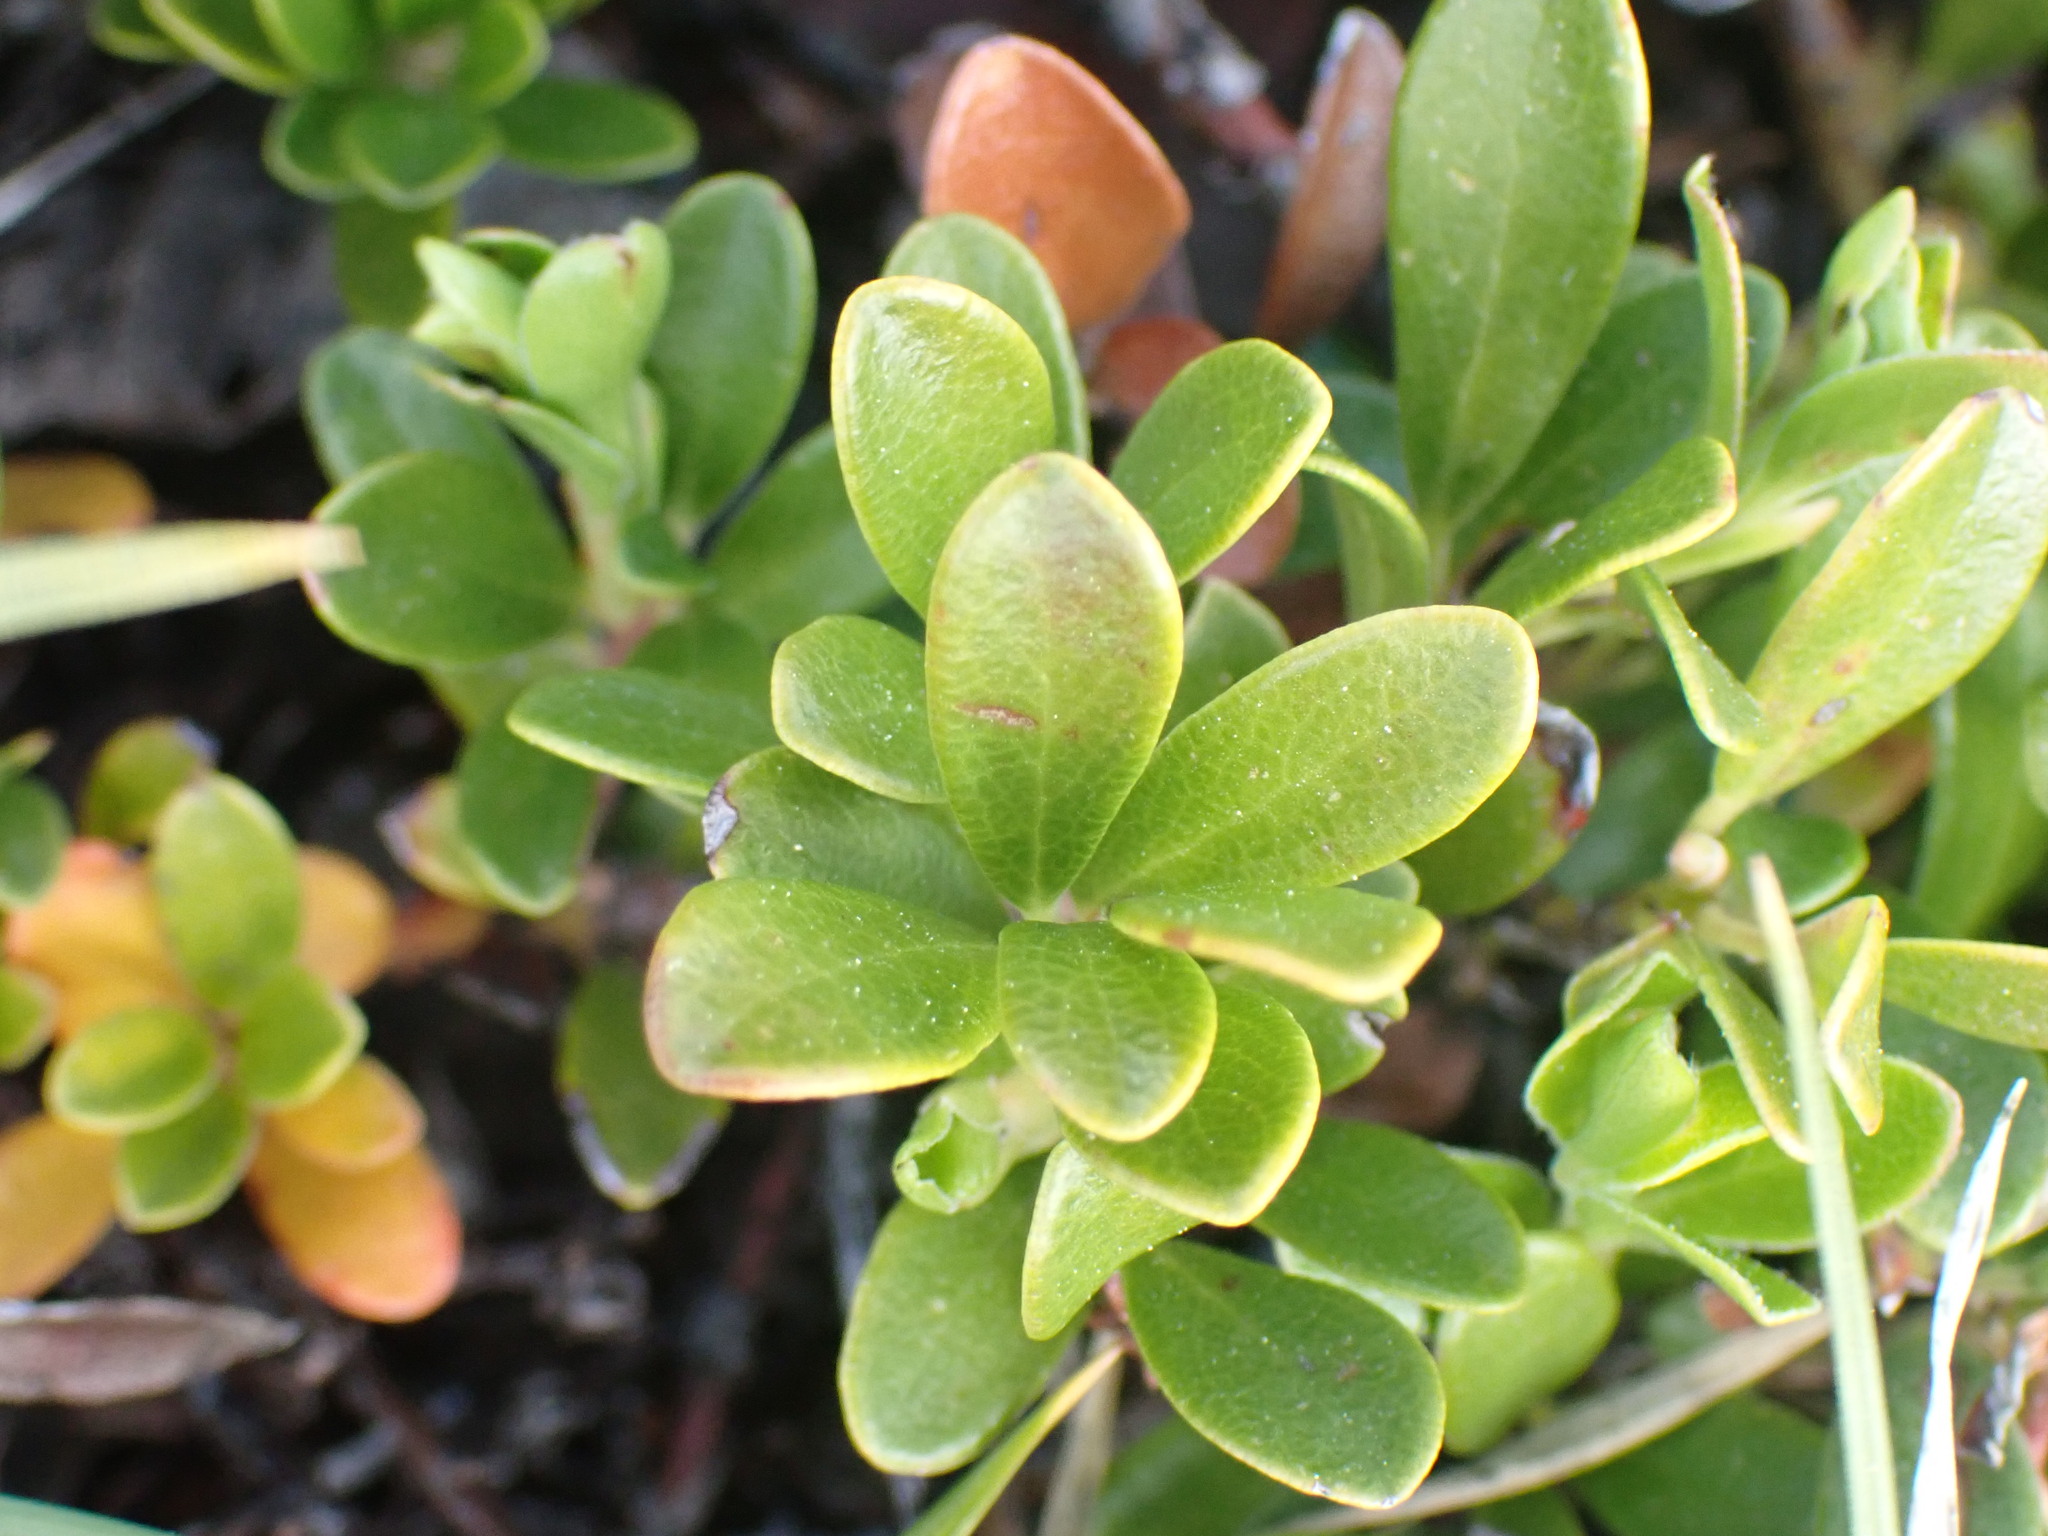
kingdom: Plantae
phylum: Tracheophyta
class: Magnoliopsida
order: Ericales
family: Ericaceae
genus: Arctostaphylos
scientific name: Arctostaphylos uva-ursi
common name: Bearberry
